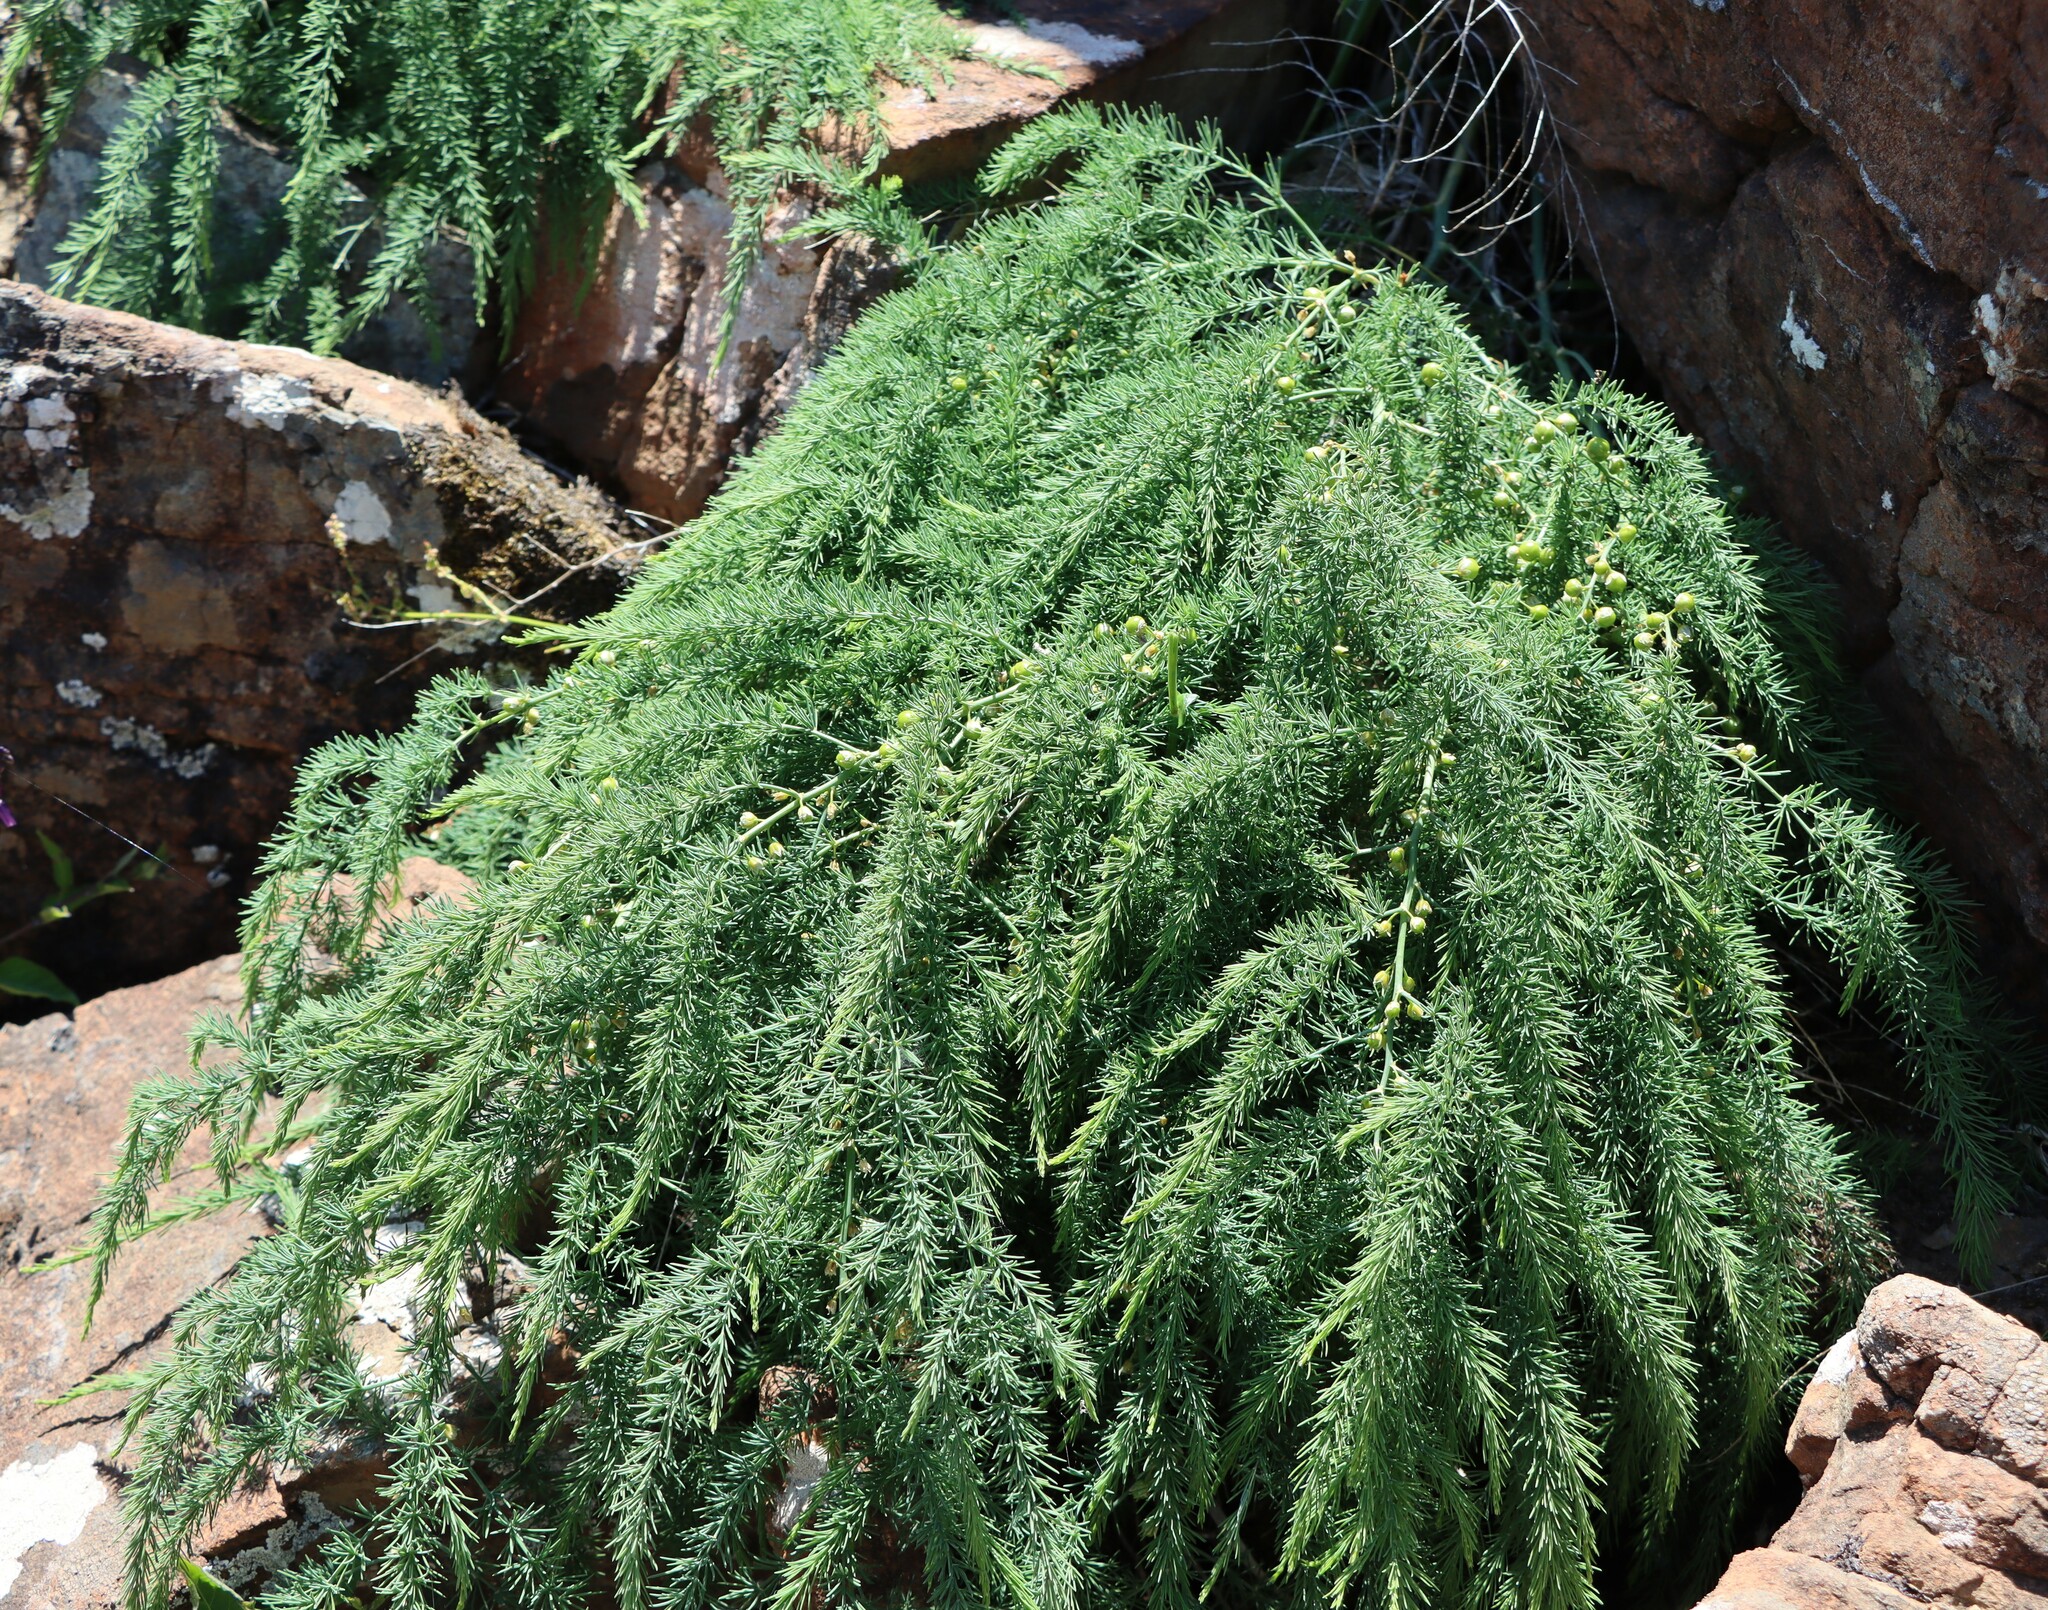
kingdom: Plantae
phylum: Tracheophyta
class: Liliopsida
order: Asparagales
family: Asparagaceae
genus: Asparagus
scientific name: Asparagus prostratus
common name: Wild asparagus
